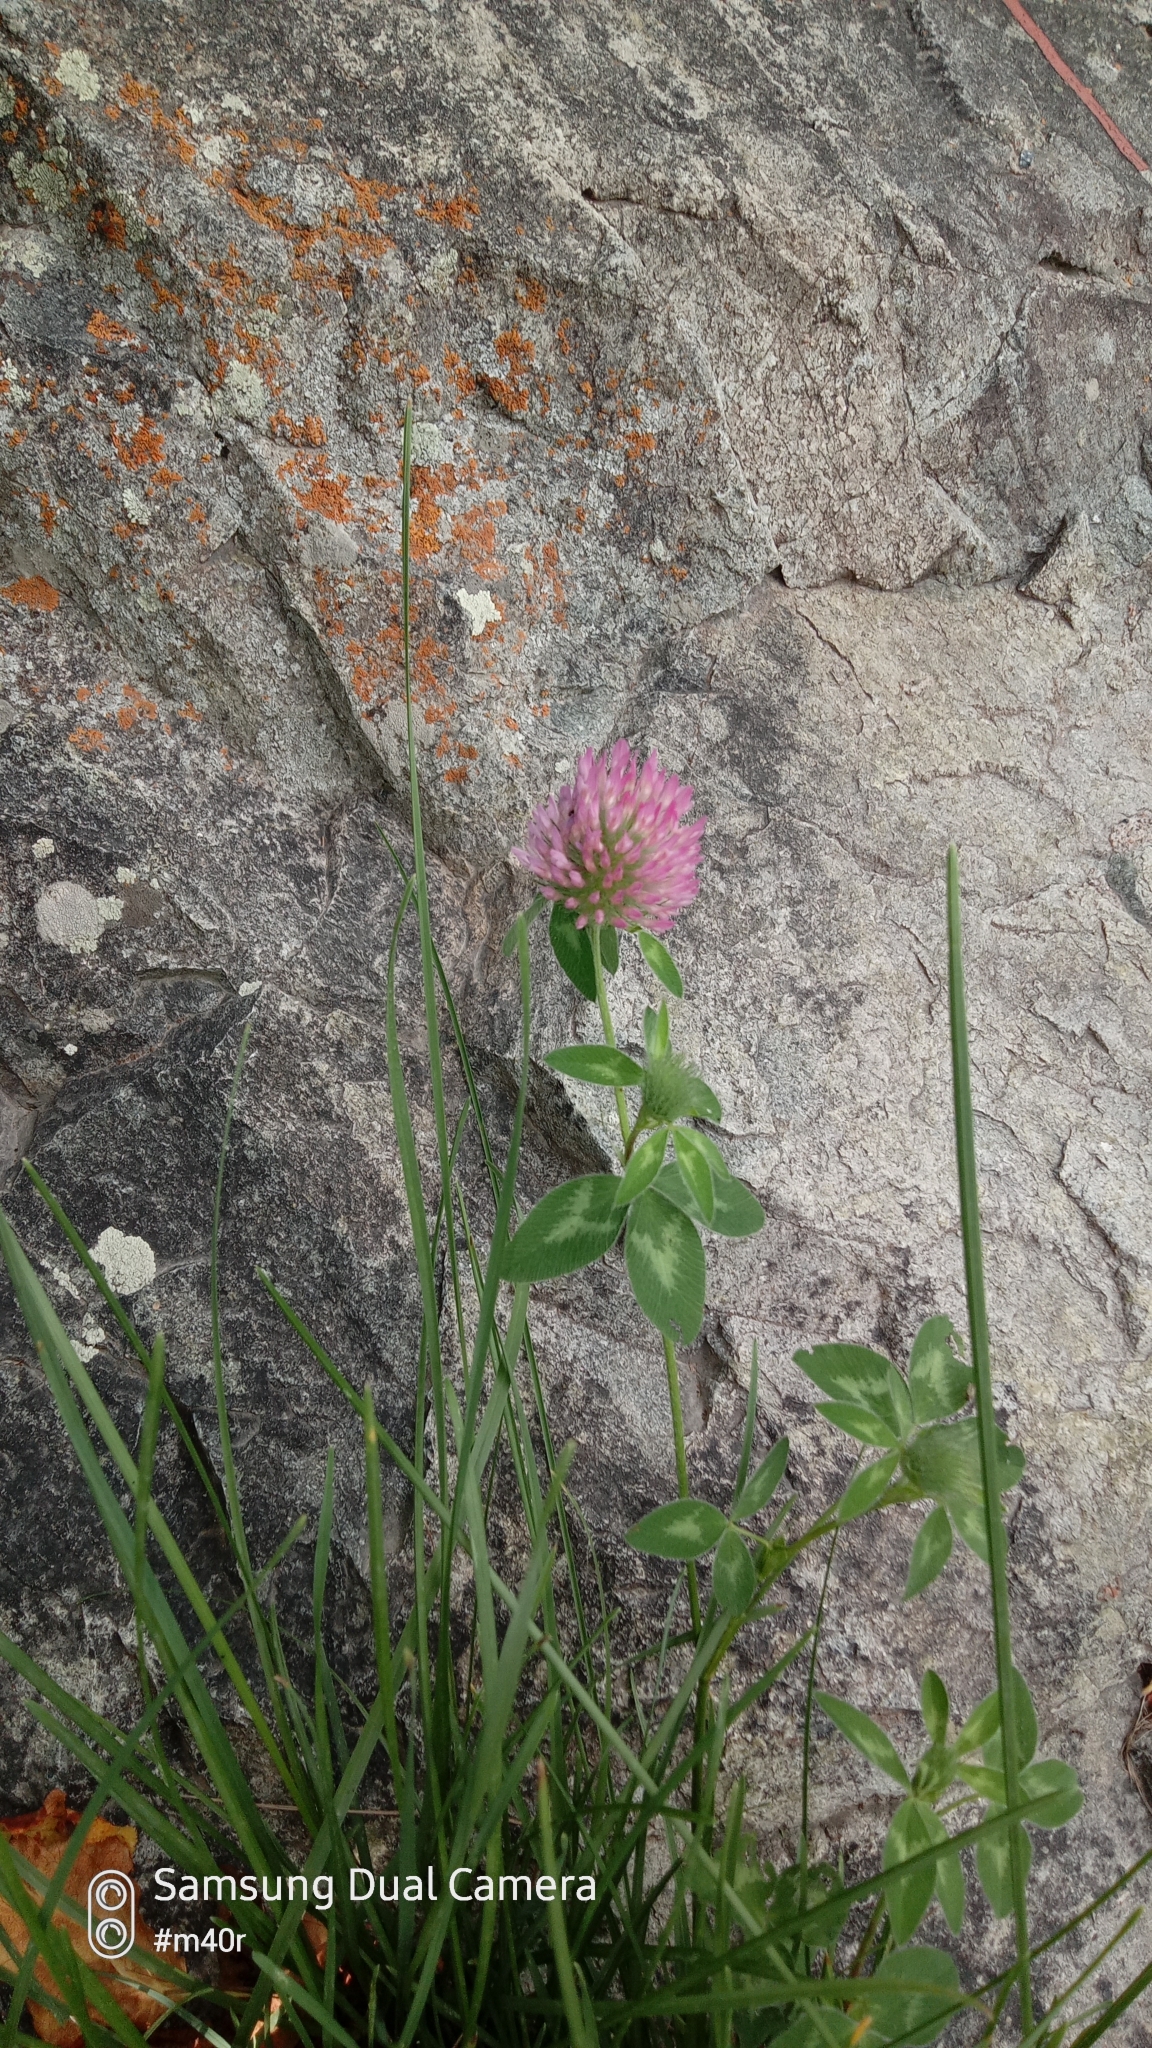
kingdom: Plantae
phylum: Tracheophyta
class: Magnoliopsida
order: Fabales
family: Fabaceae
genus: Trifolium
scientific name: Trifolium pratense
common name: Red clover
